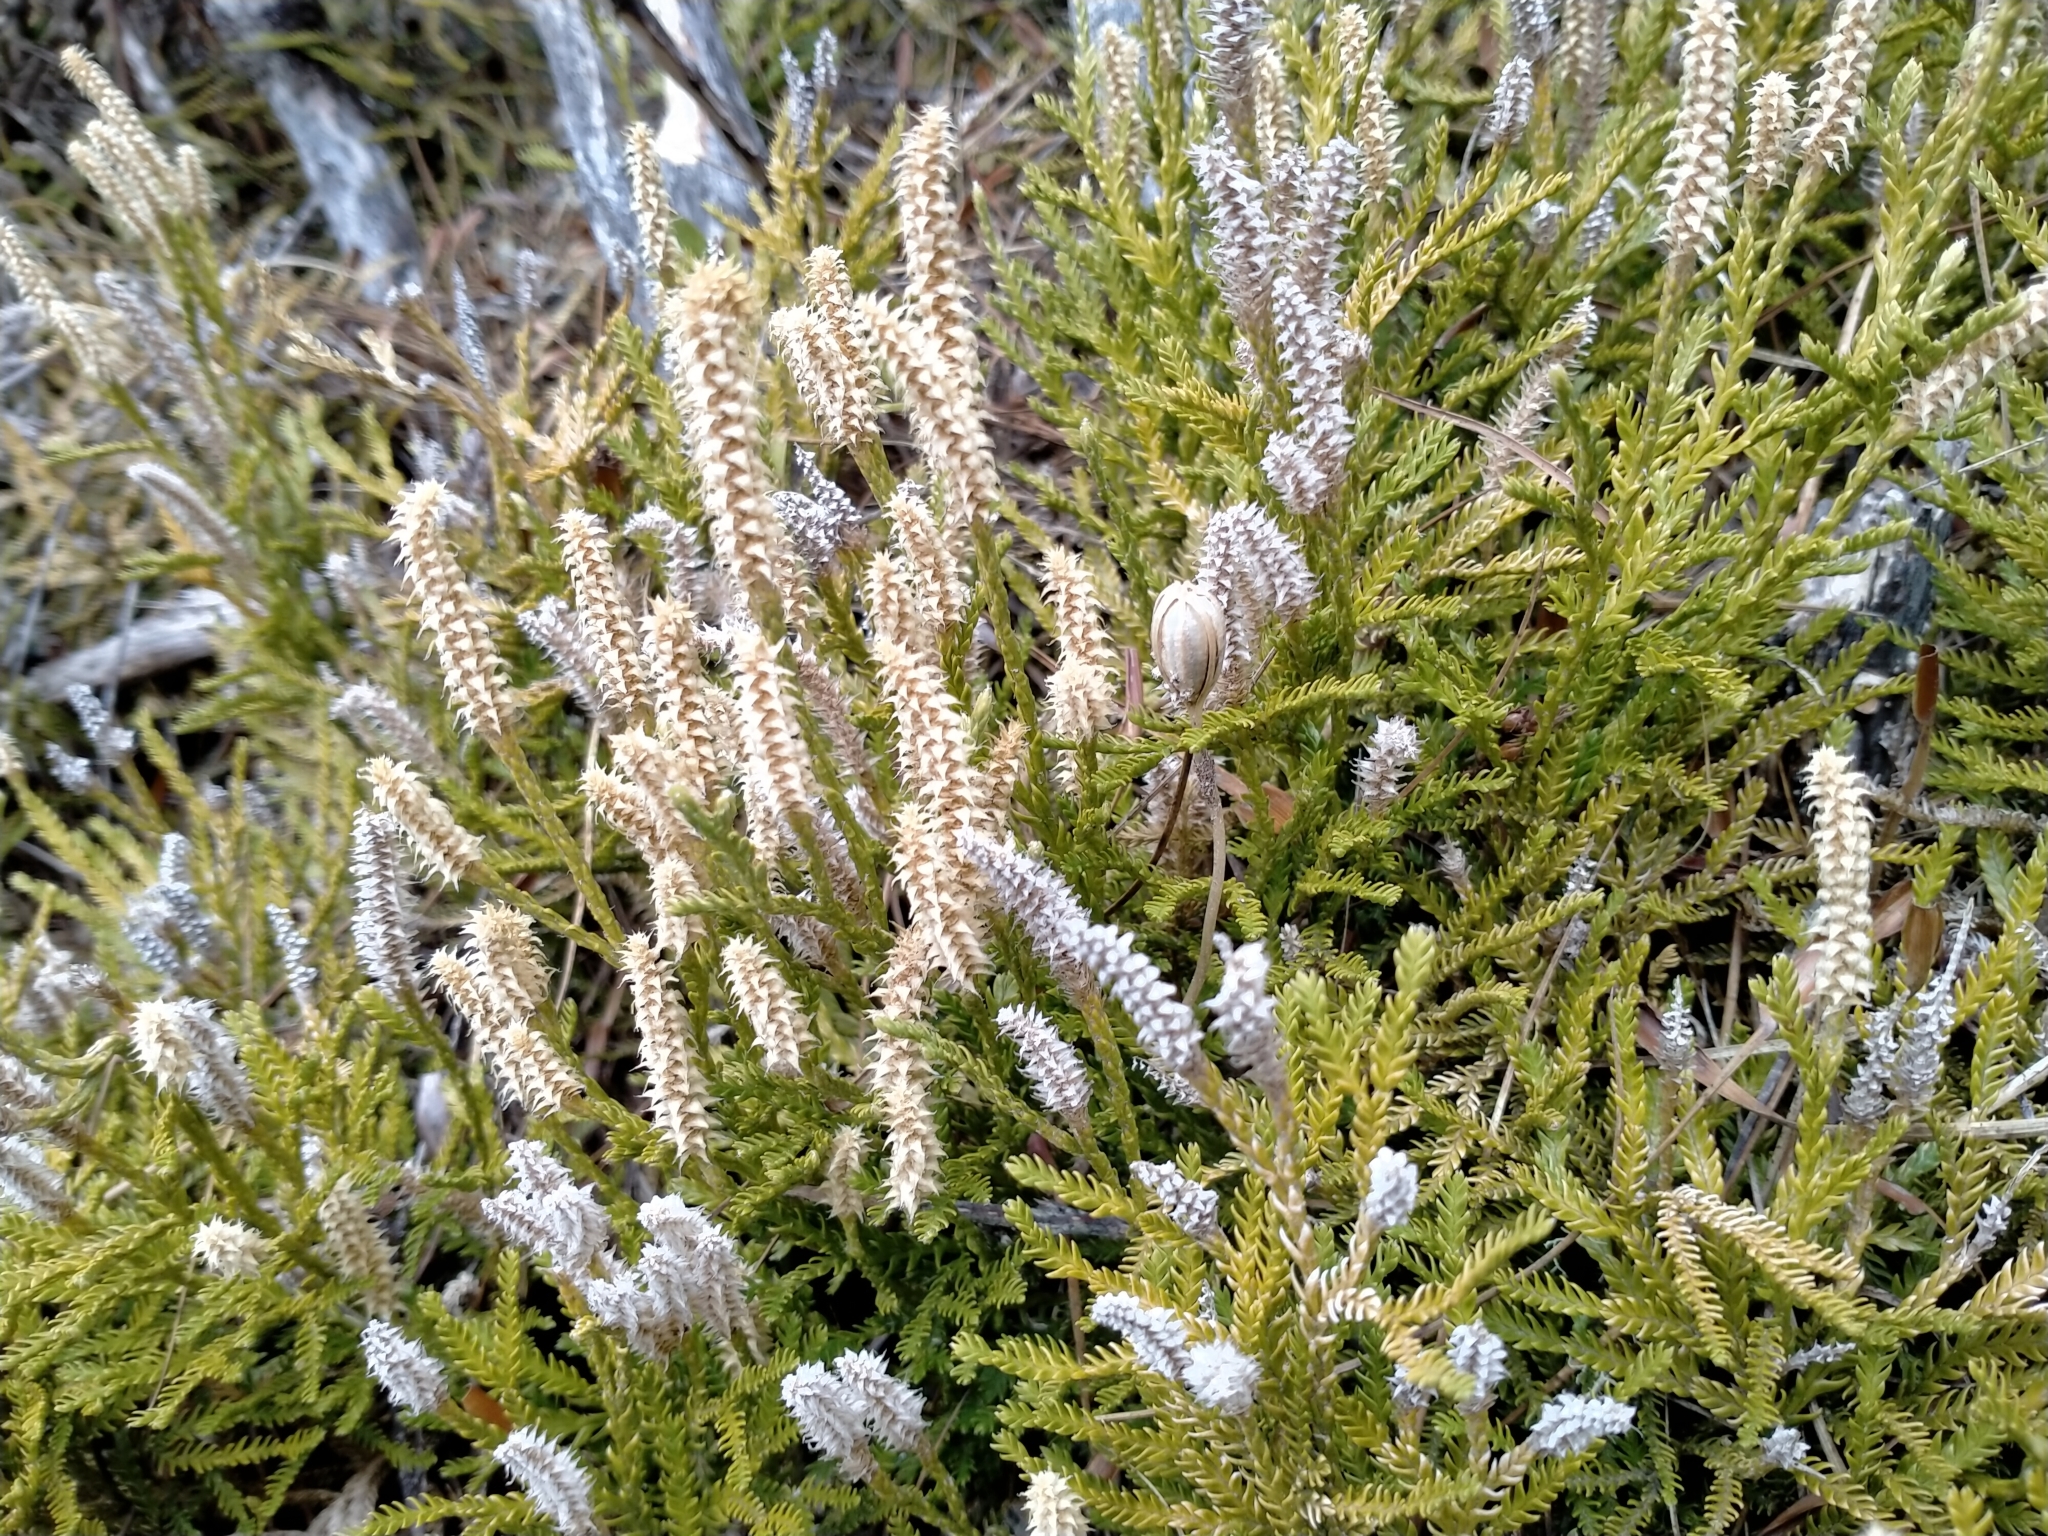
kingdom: Plantae
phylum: Tracheophyta
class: Lycopodiopsida
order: Lycopodiales
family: Lycopodiaceae
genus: Diphasium
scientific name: Diphasium scariosum
